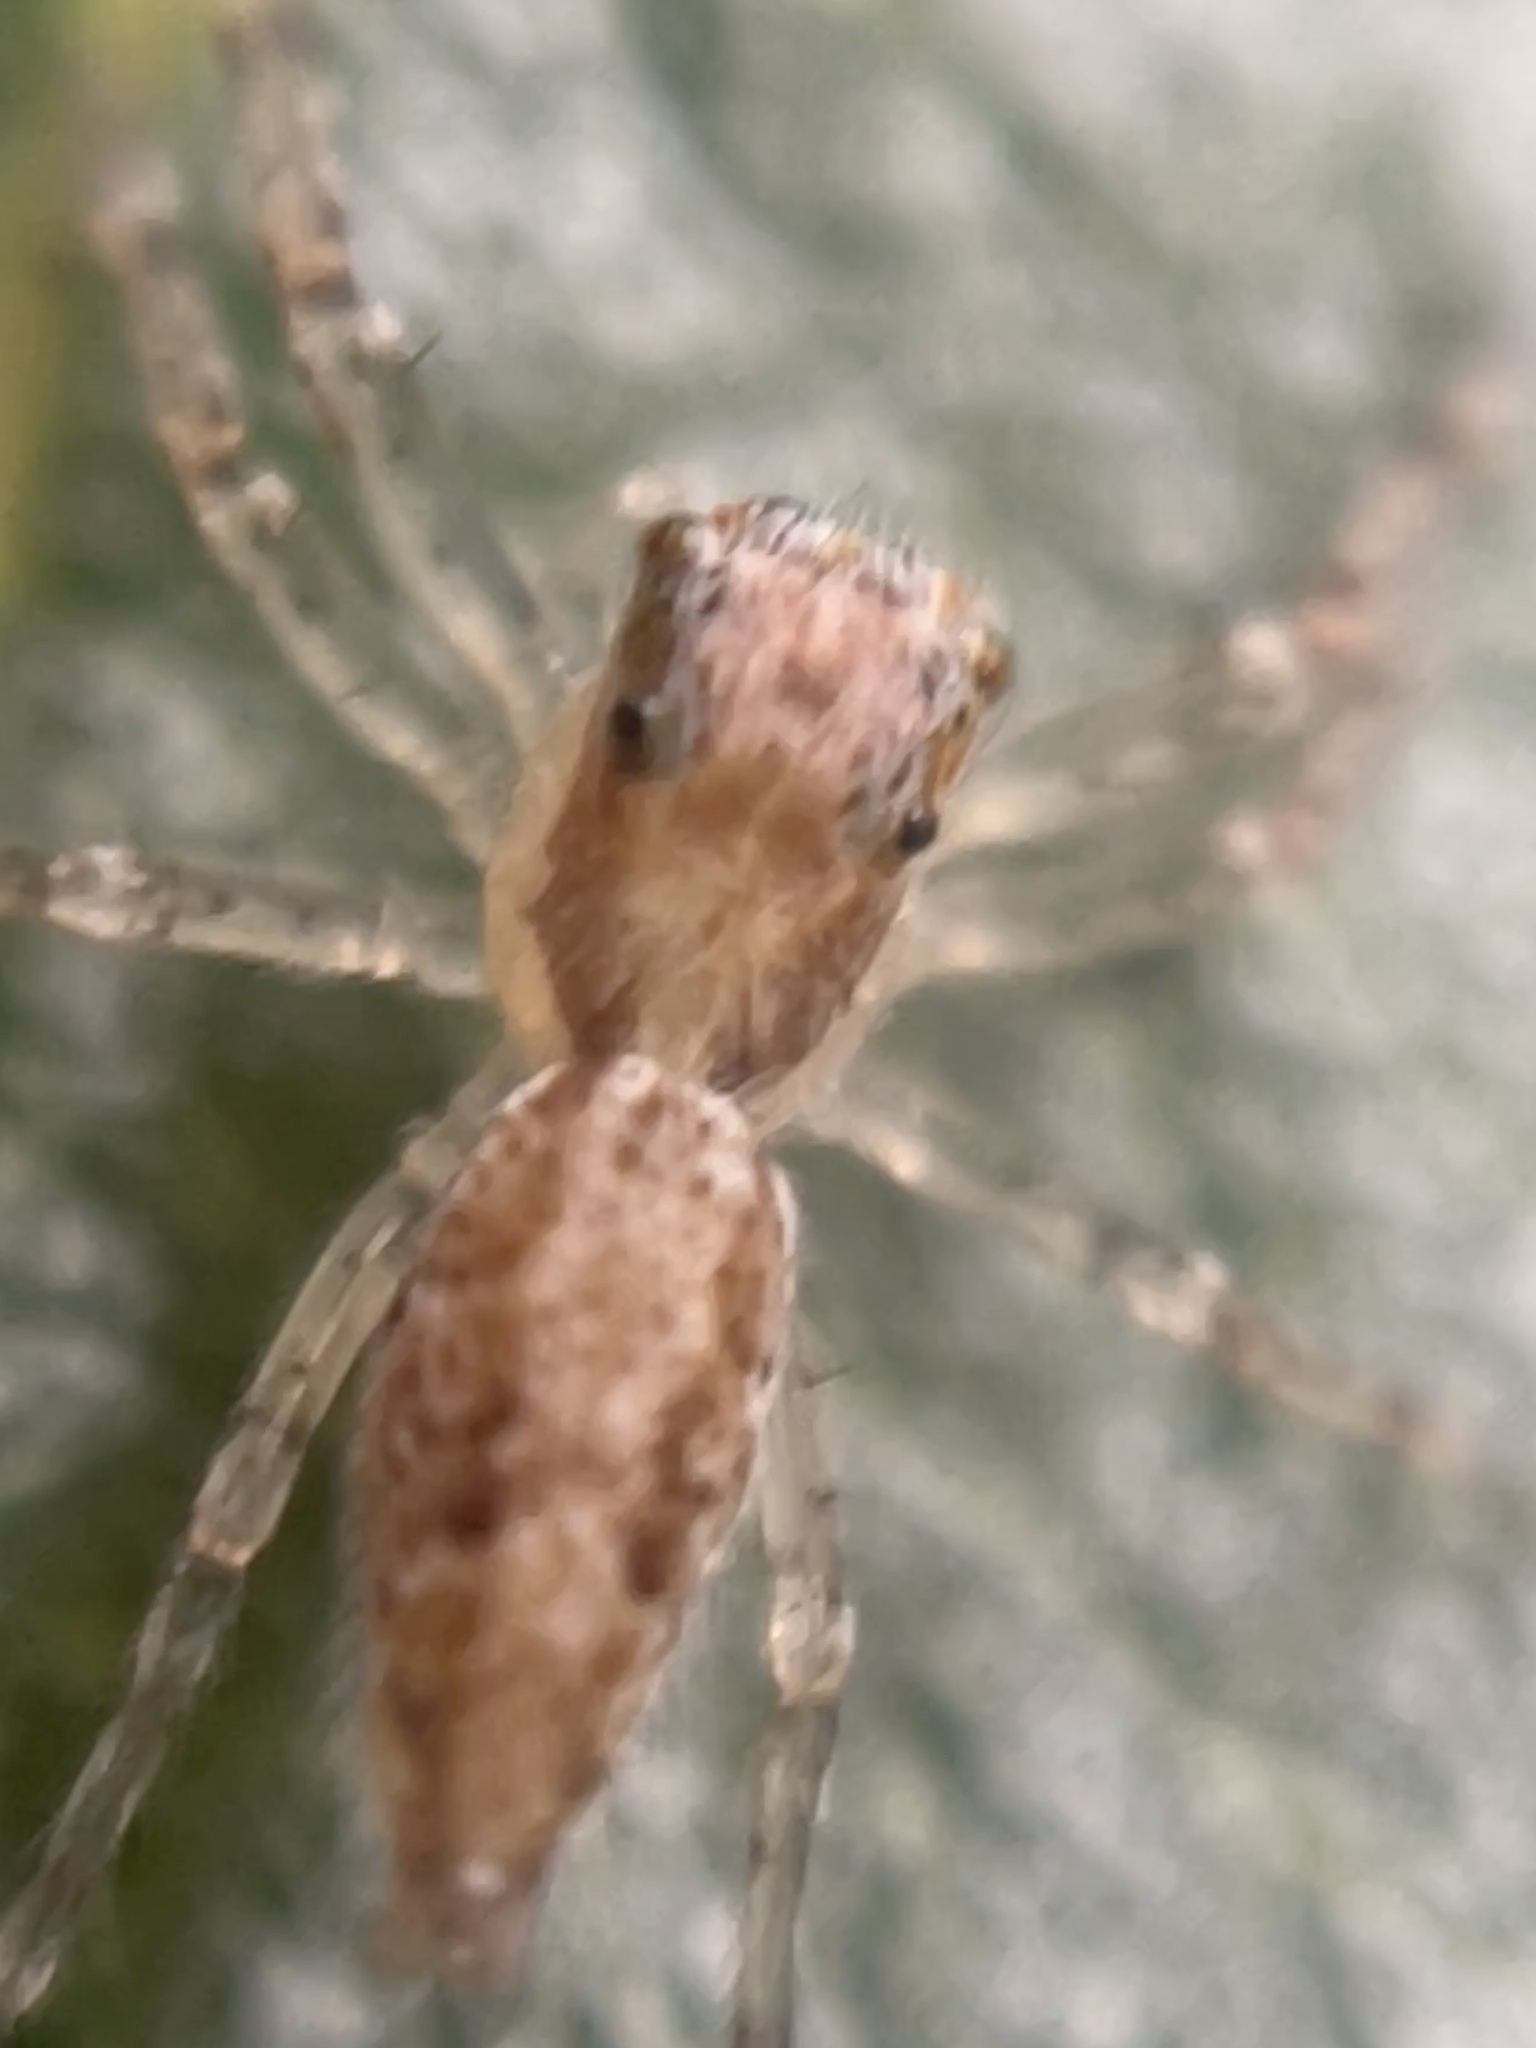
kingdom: Animalia
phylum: Arthropoda
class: Arachnida
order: Araneae
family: Salticidae
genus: Helpis
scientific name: Helpis minitabunda
